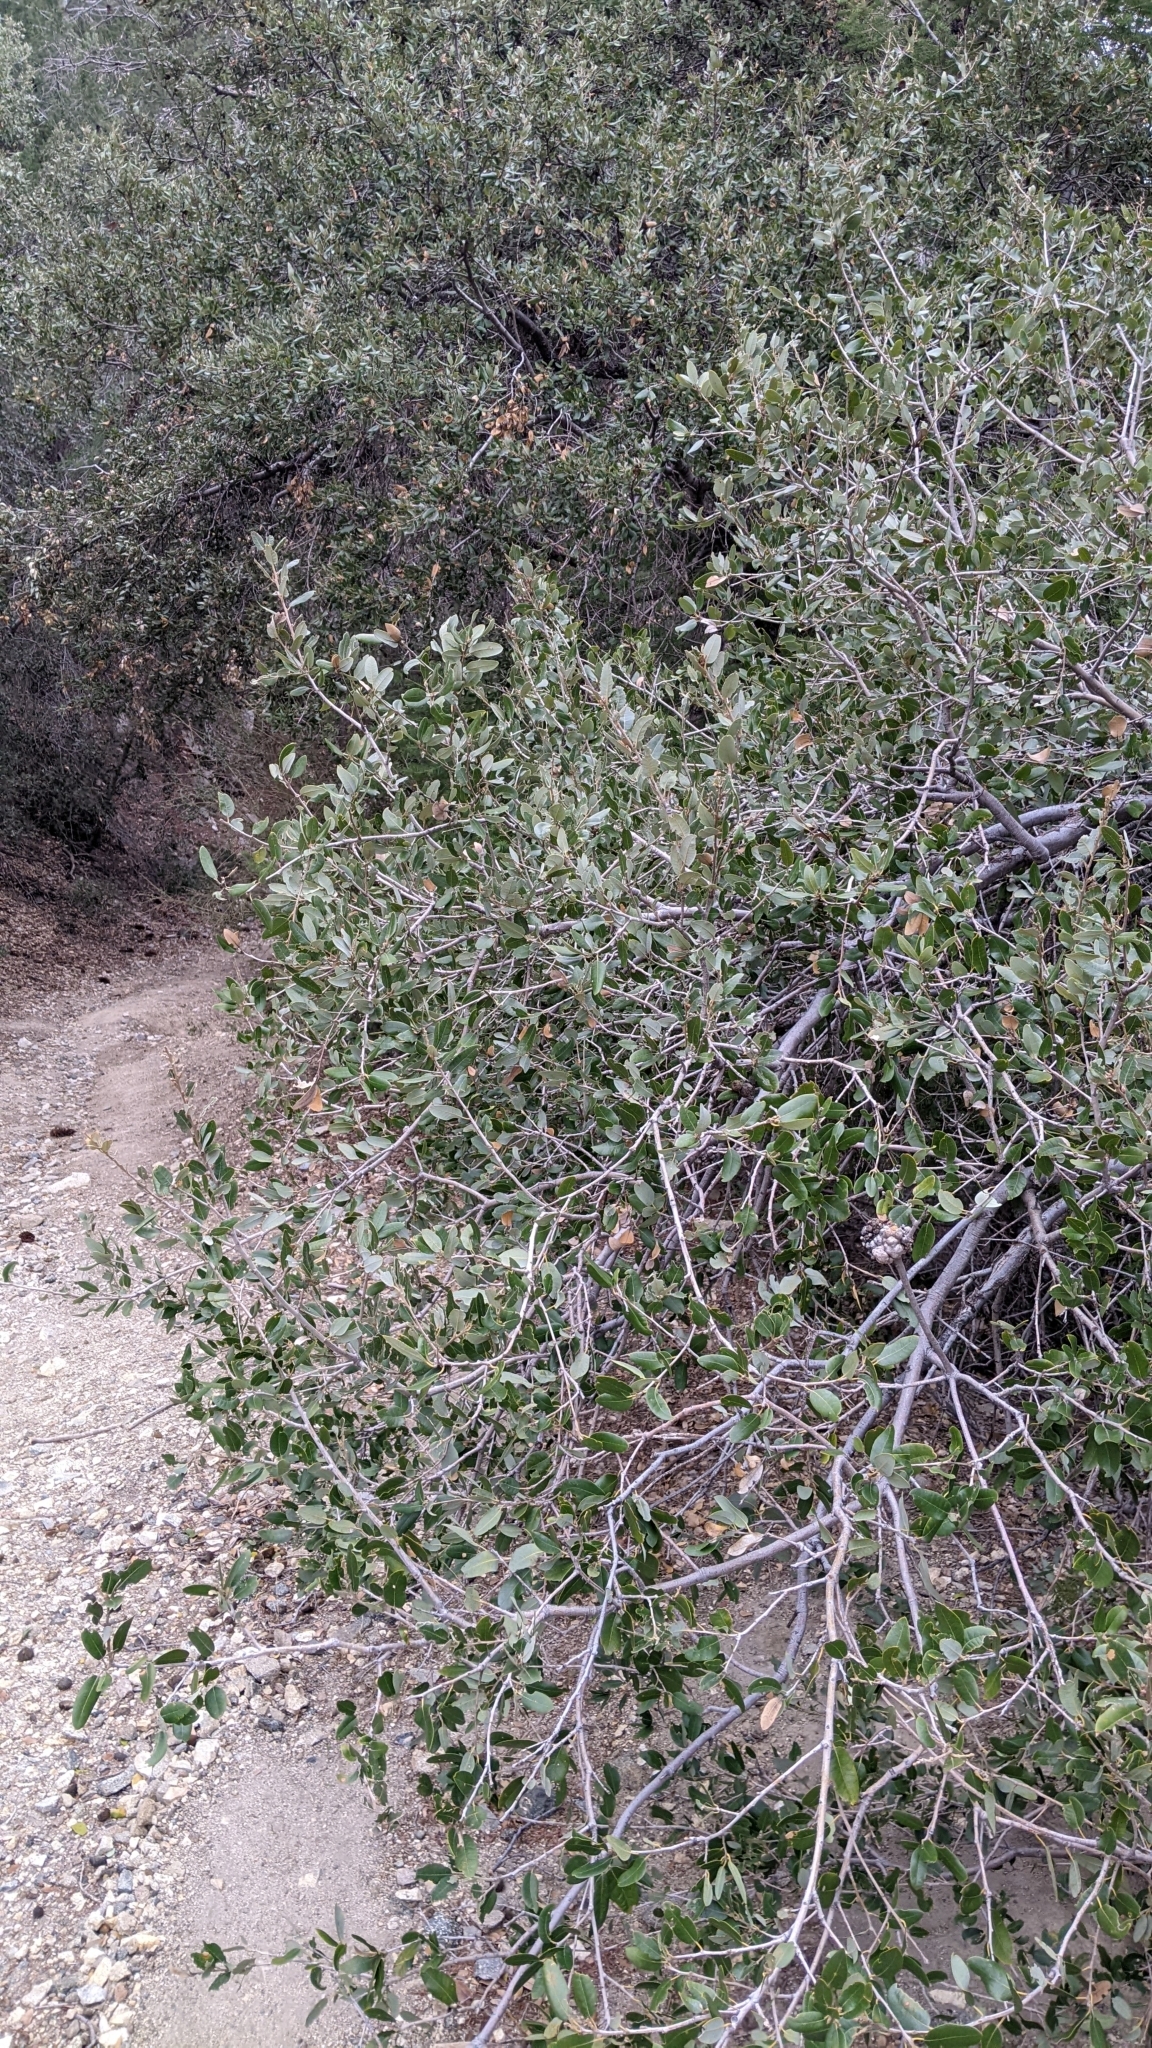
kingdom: Plantae
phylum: Tracheophyta
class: Magnoliopsida
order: Fagales
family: Fagaceae
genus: Quercus
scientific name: Quercus chrysolepis
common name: Canyon live oak
